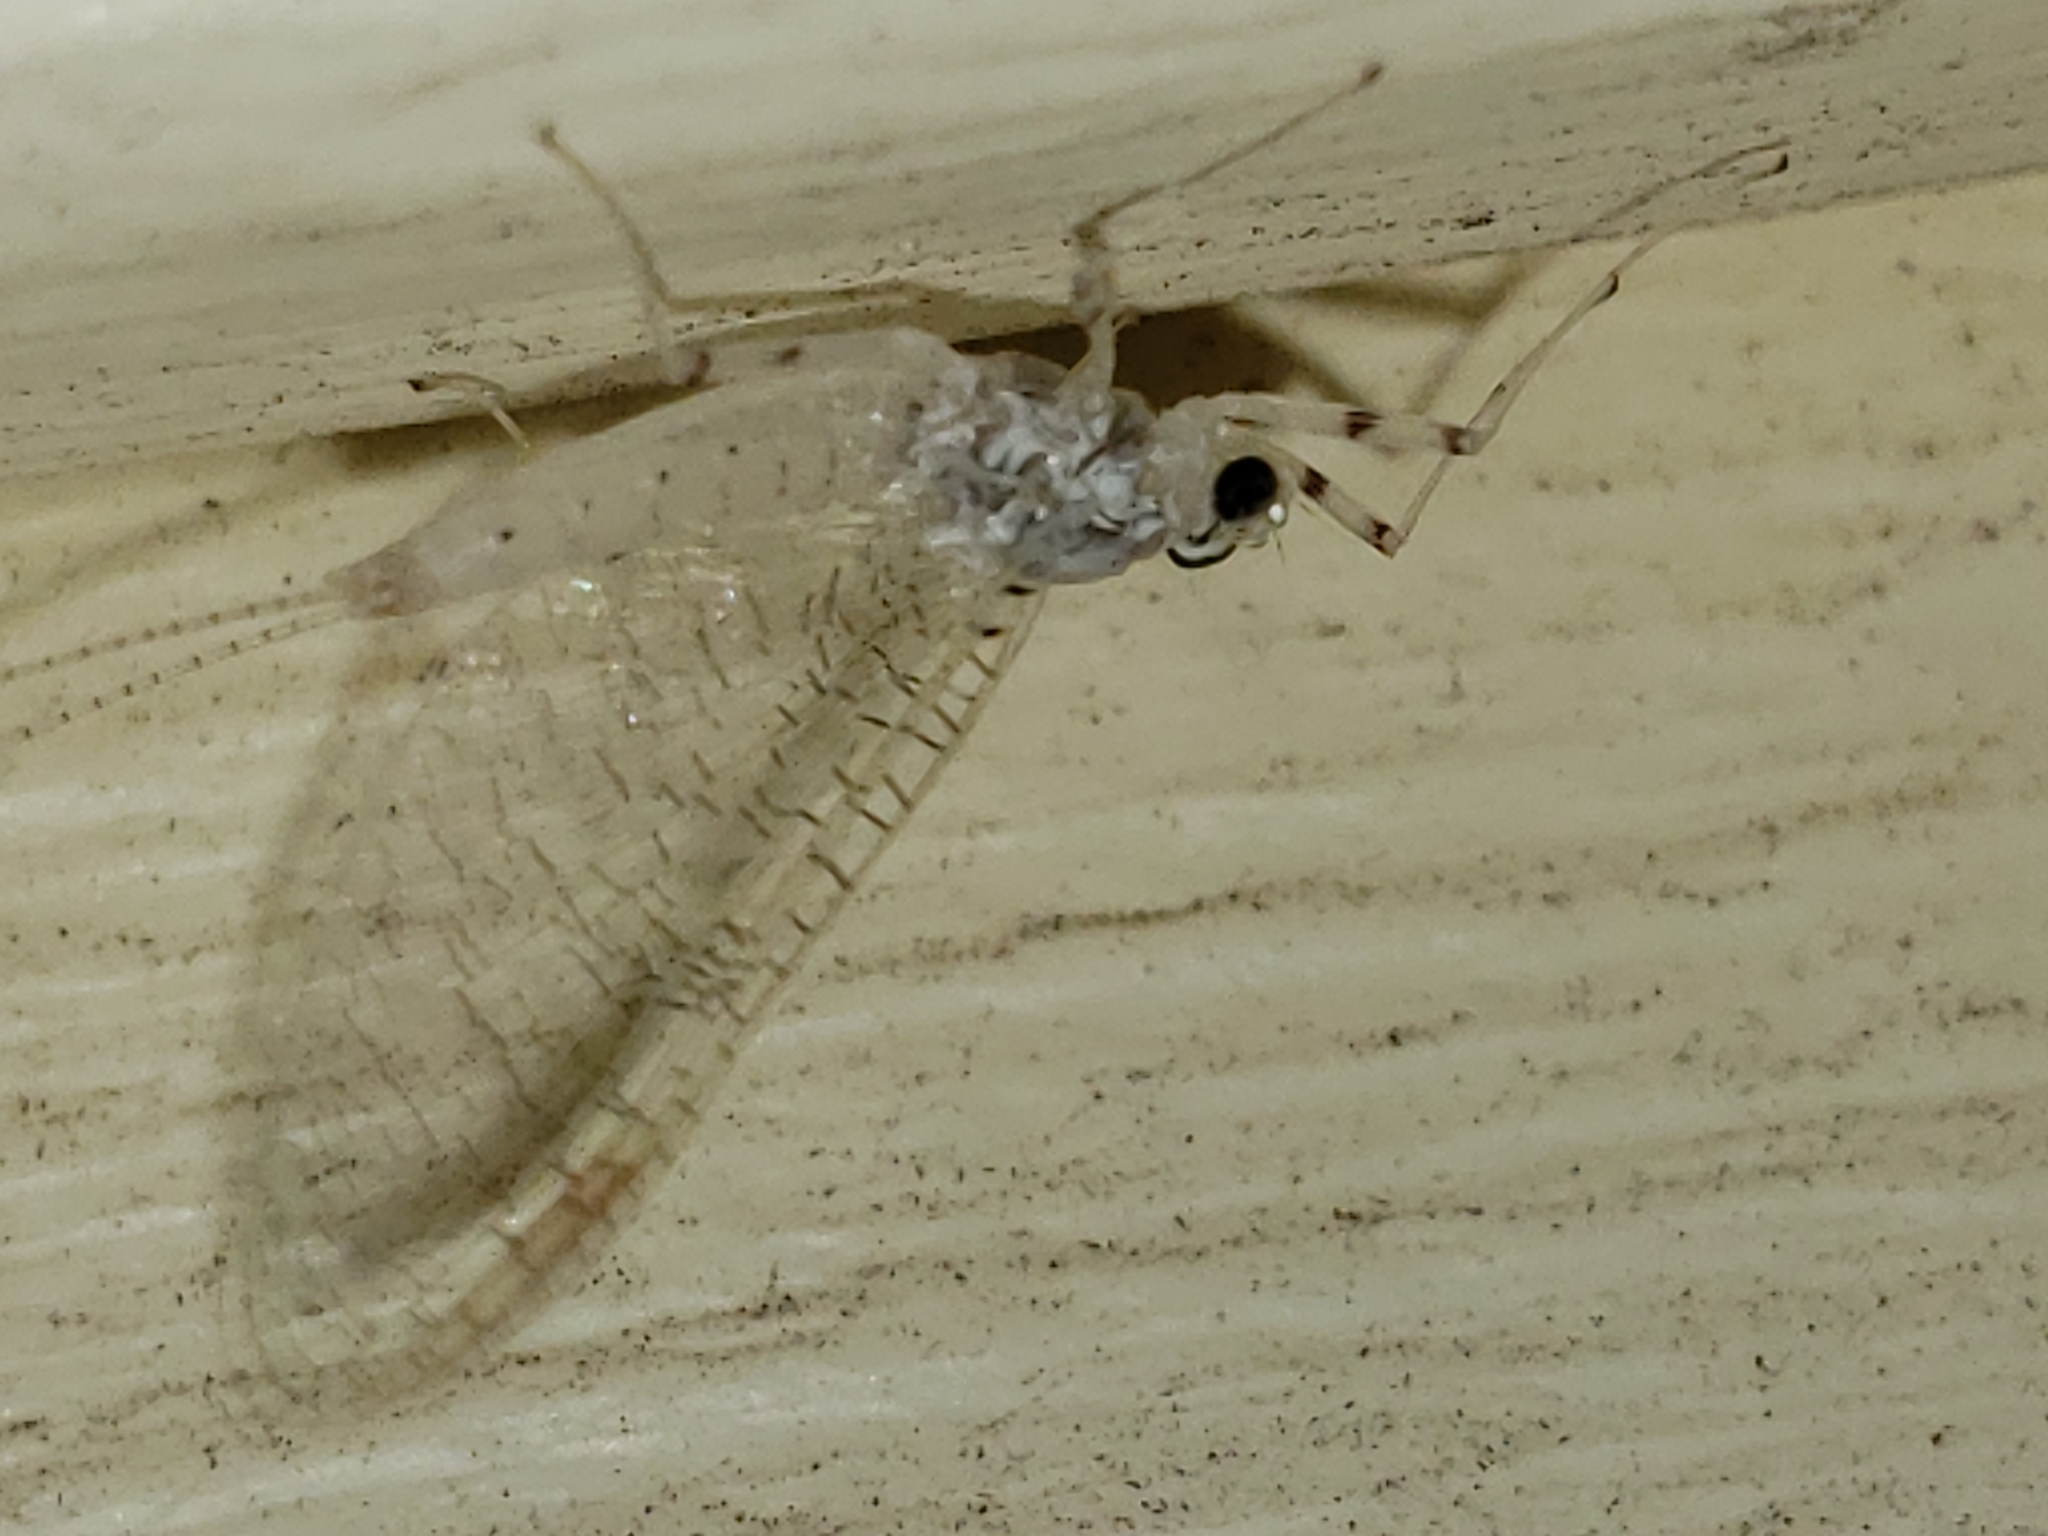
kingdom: Animalia
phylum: Arthropoda
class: Insecta
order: Ephemeroptera
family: Heptageniidae
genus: Maccaffertium
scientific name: Maccaffertium modestum
